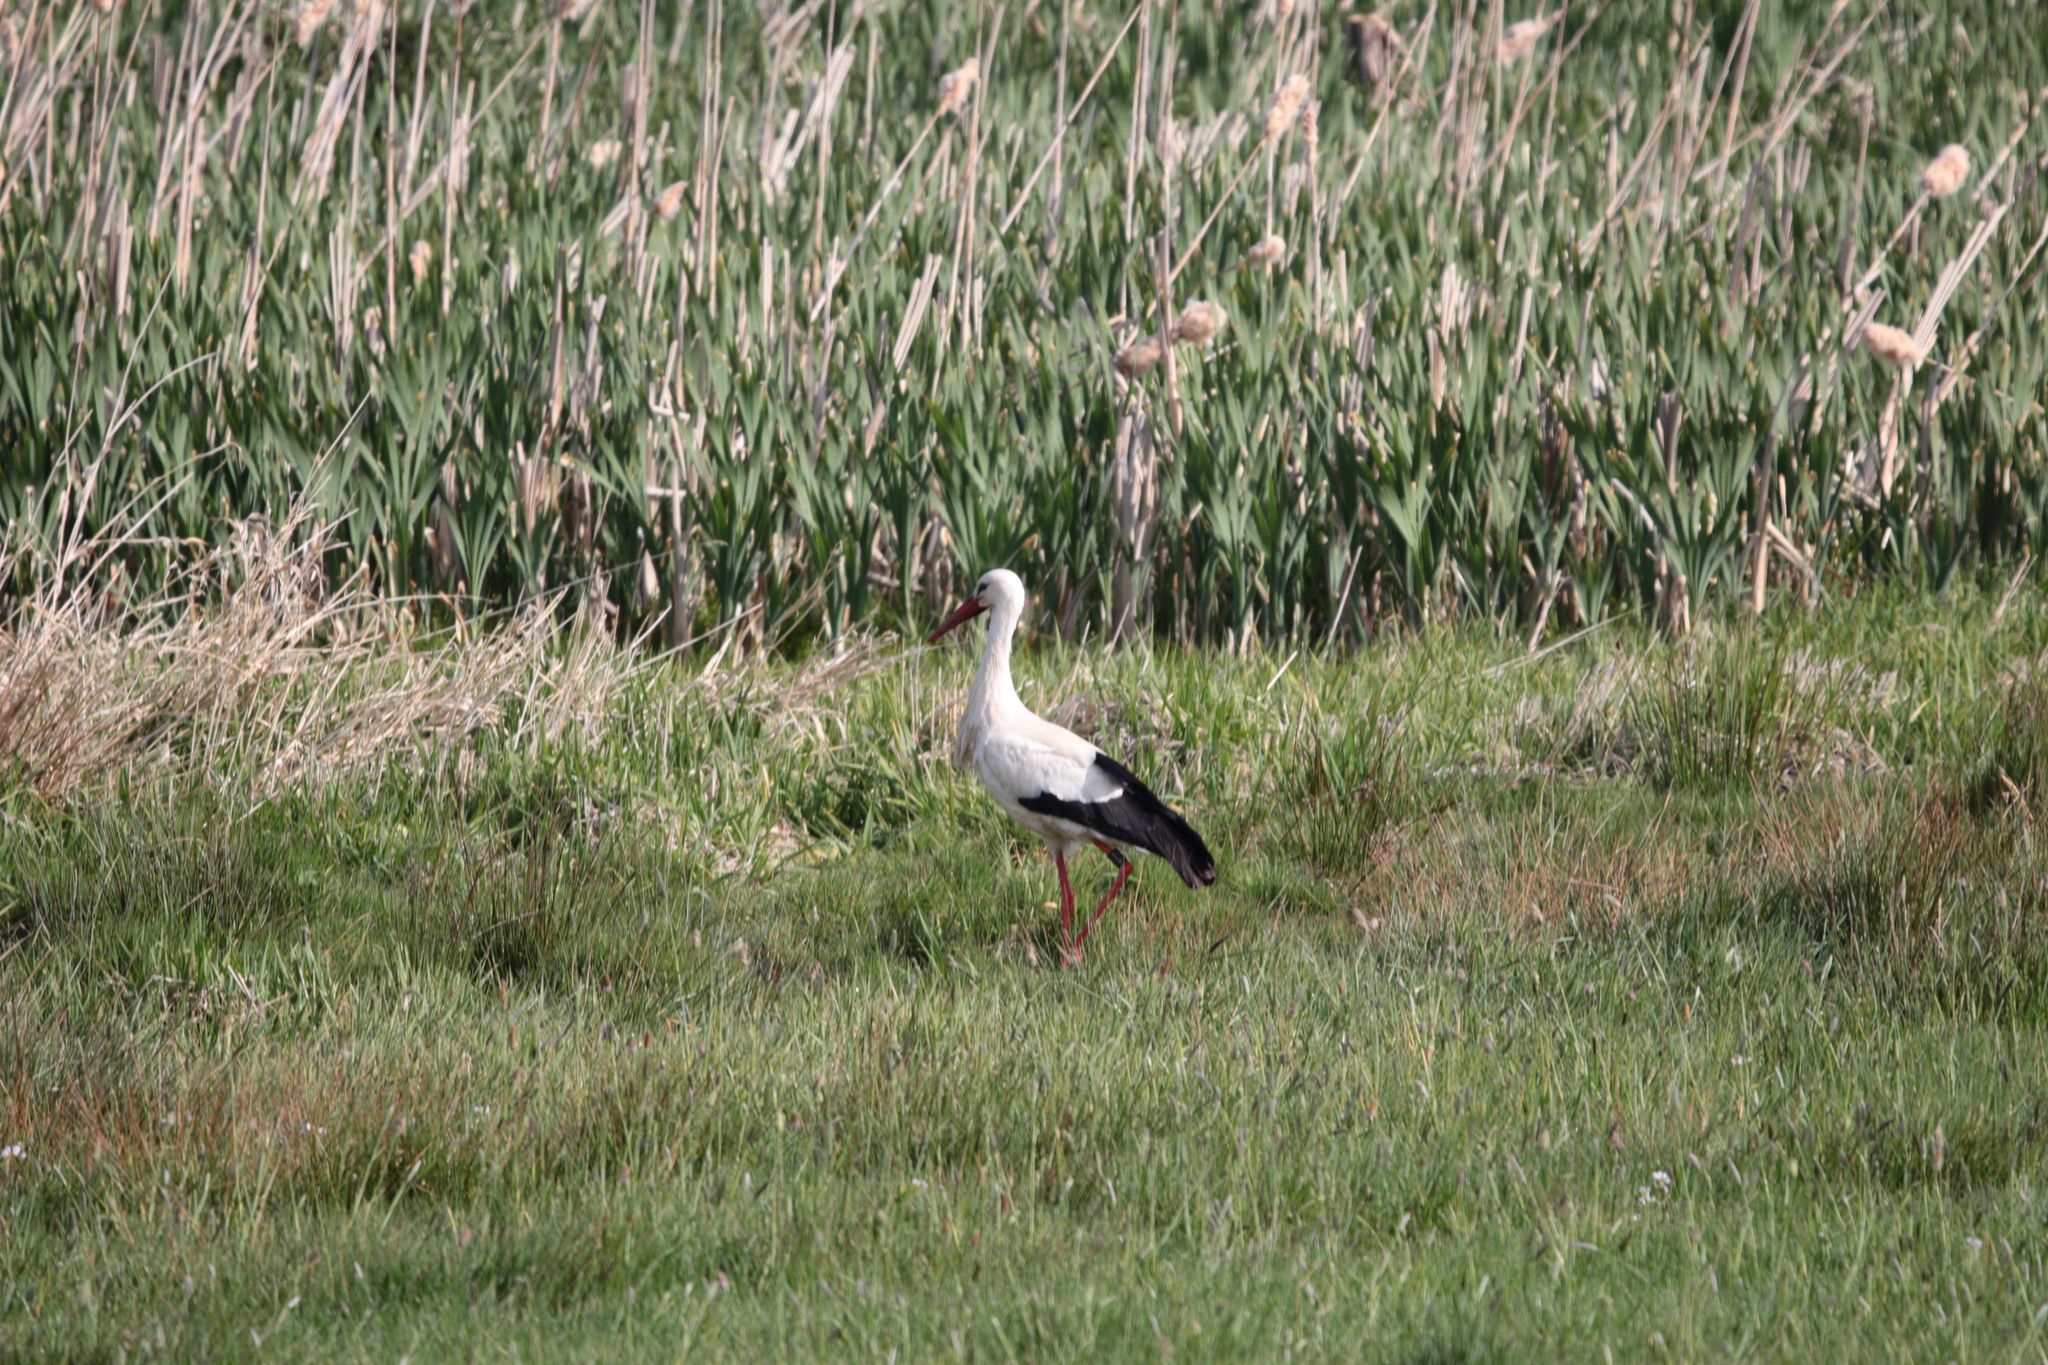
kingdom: Animalia
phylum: Chordata
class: Aves
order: Ciconiiformes
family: Ciconiidae
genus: Ciconia
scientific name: Ciconia ciconia
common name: White stork
